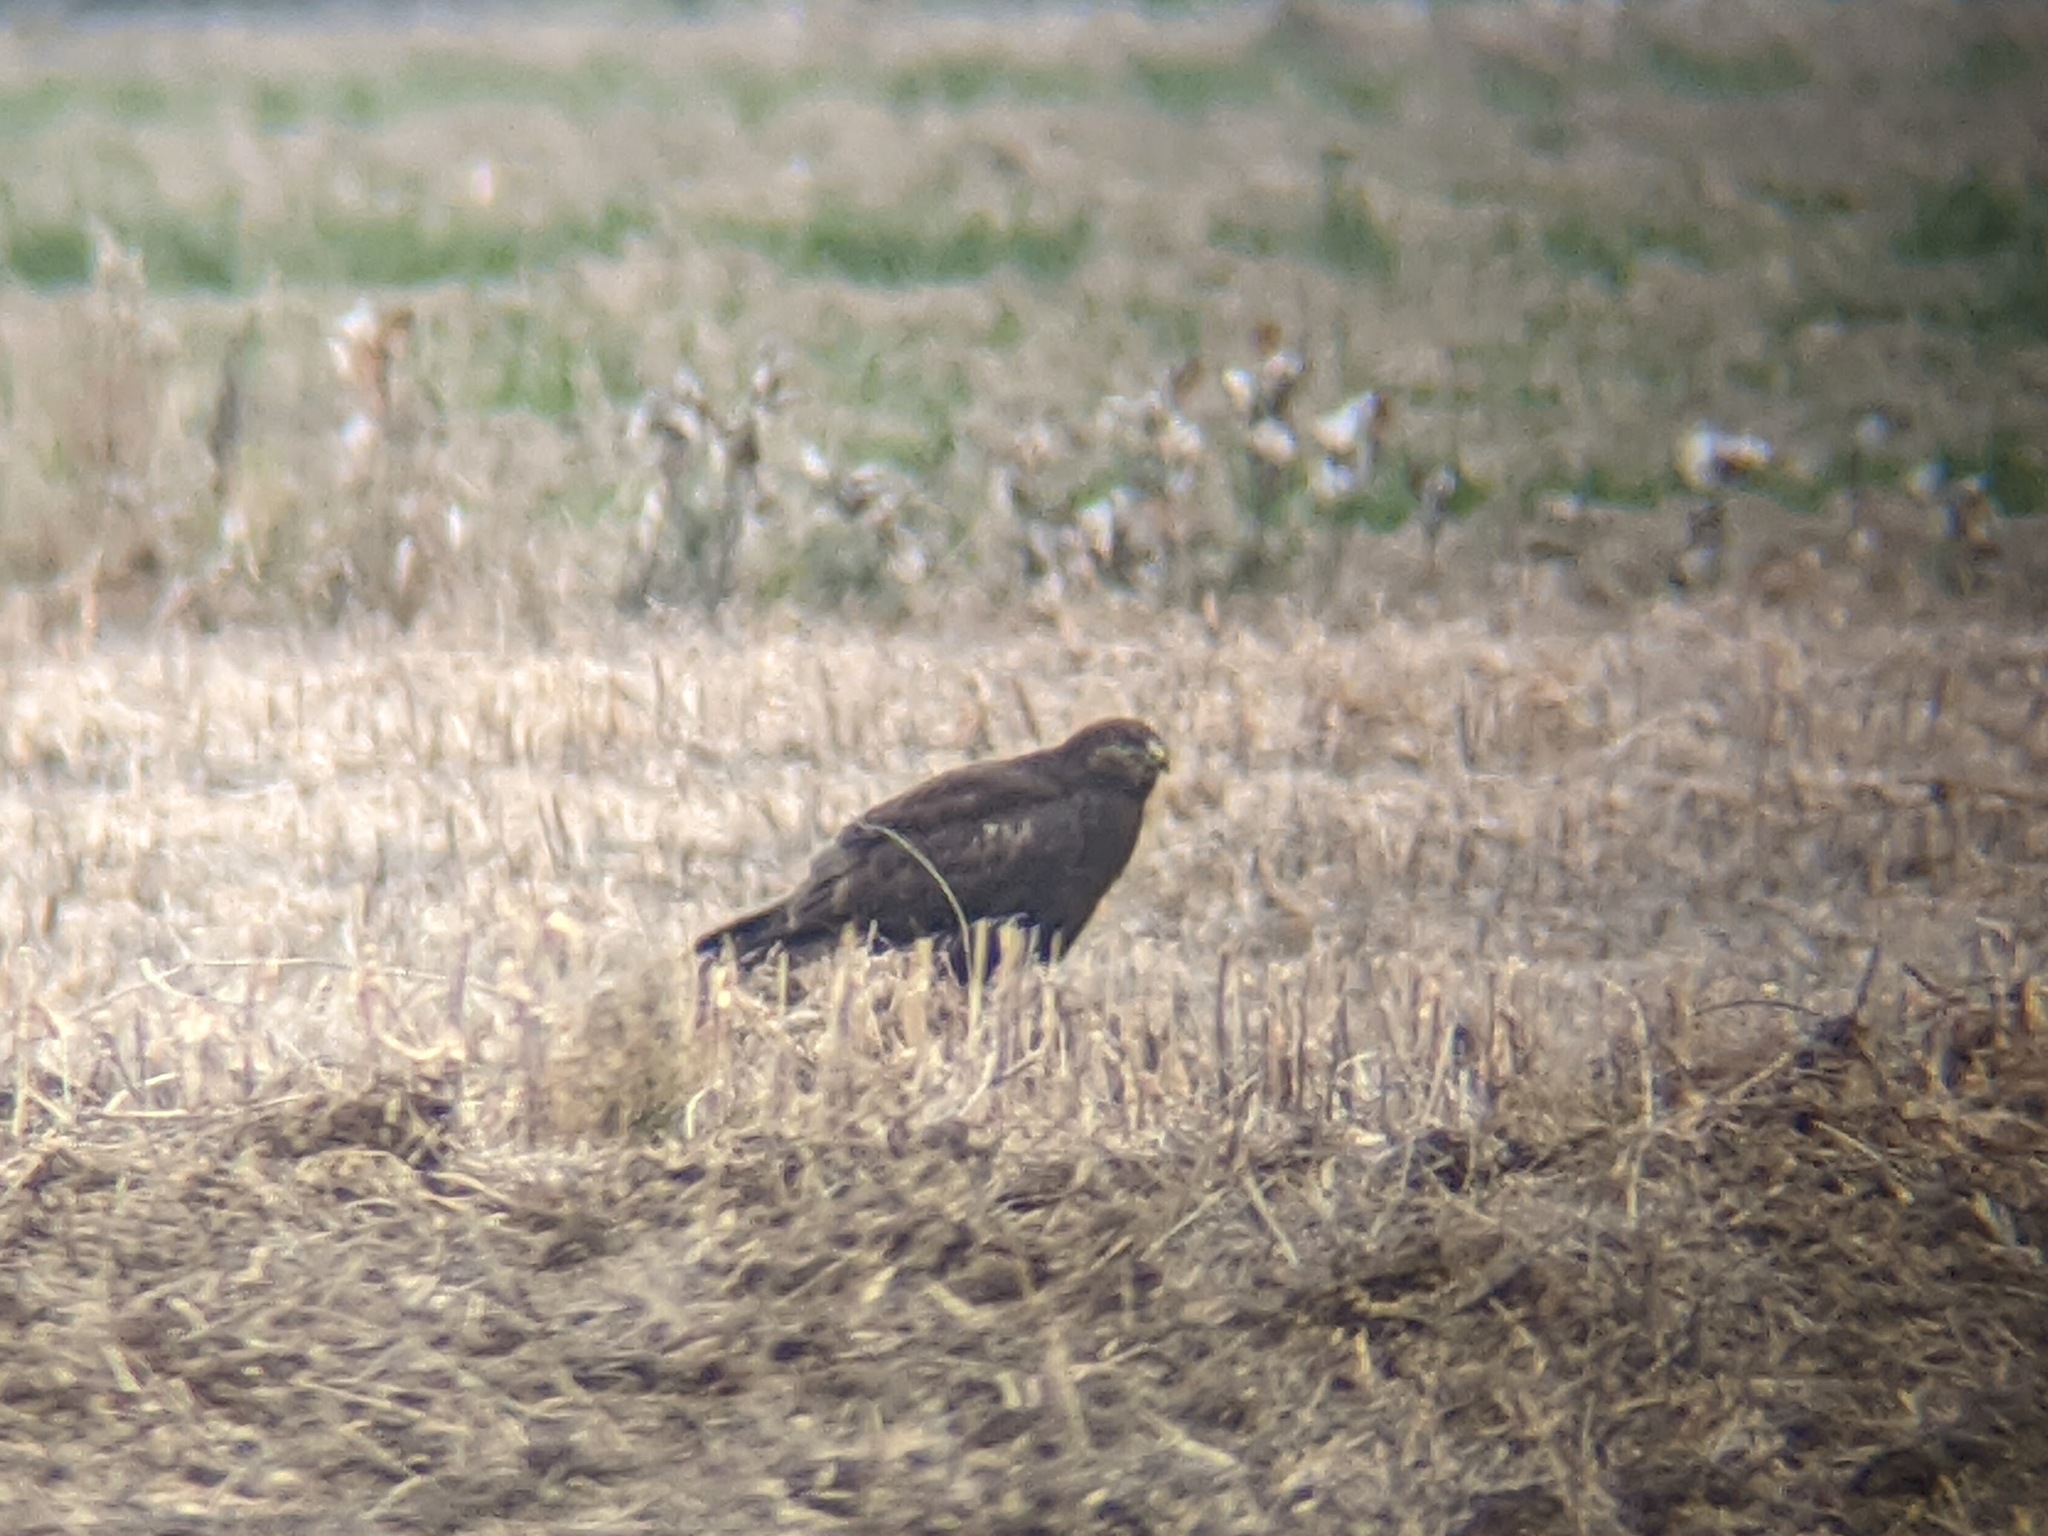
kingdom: Animalia
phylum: Chordata
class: Aves
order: Accipitriformes
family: Accipitridae
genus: Buteo
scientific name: Buteo lagopus
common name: Rough-legged buzzard
